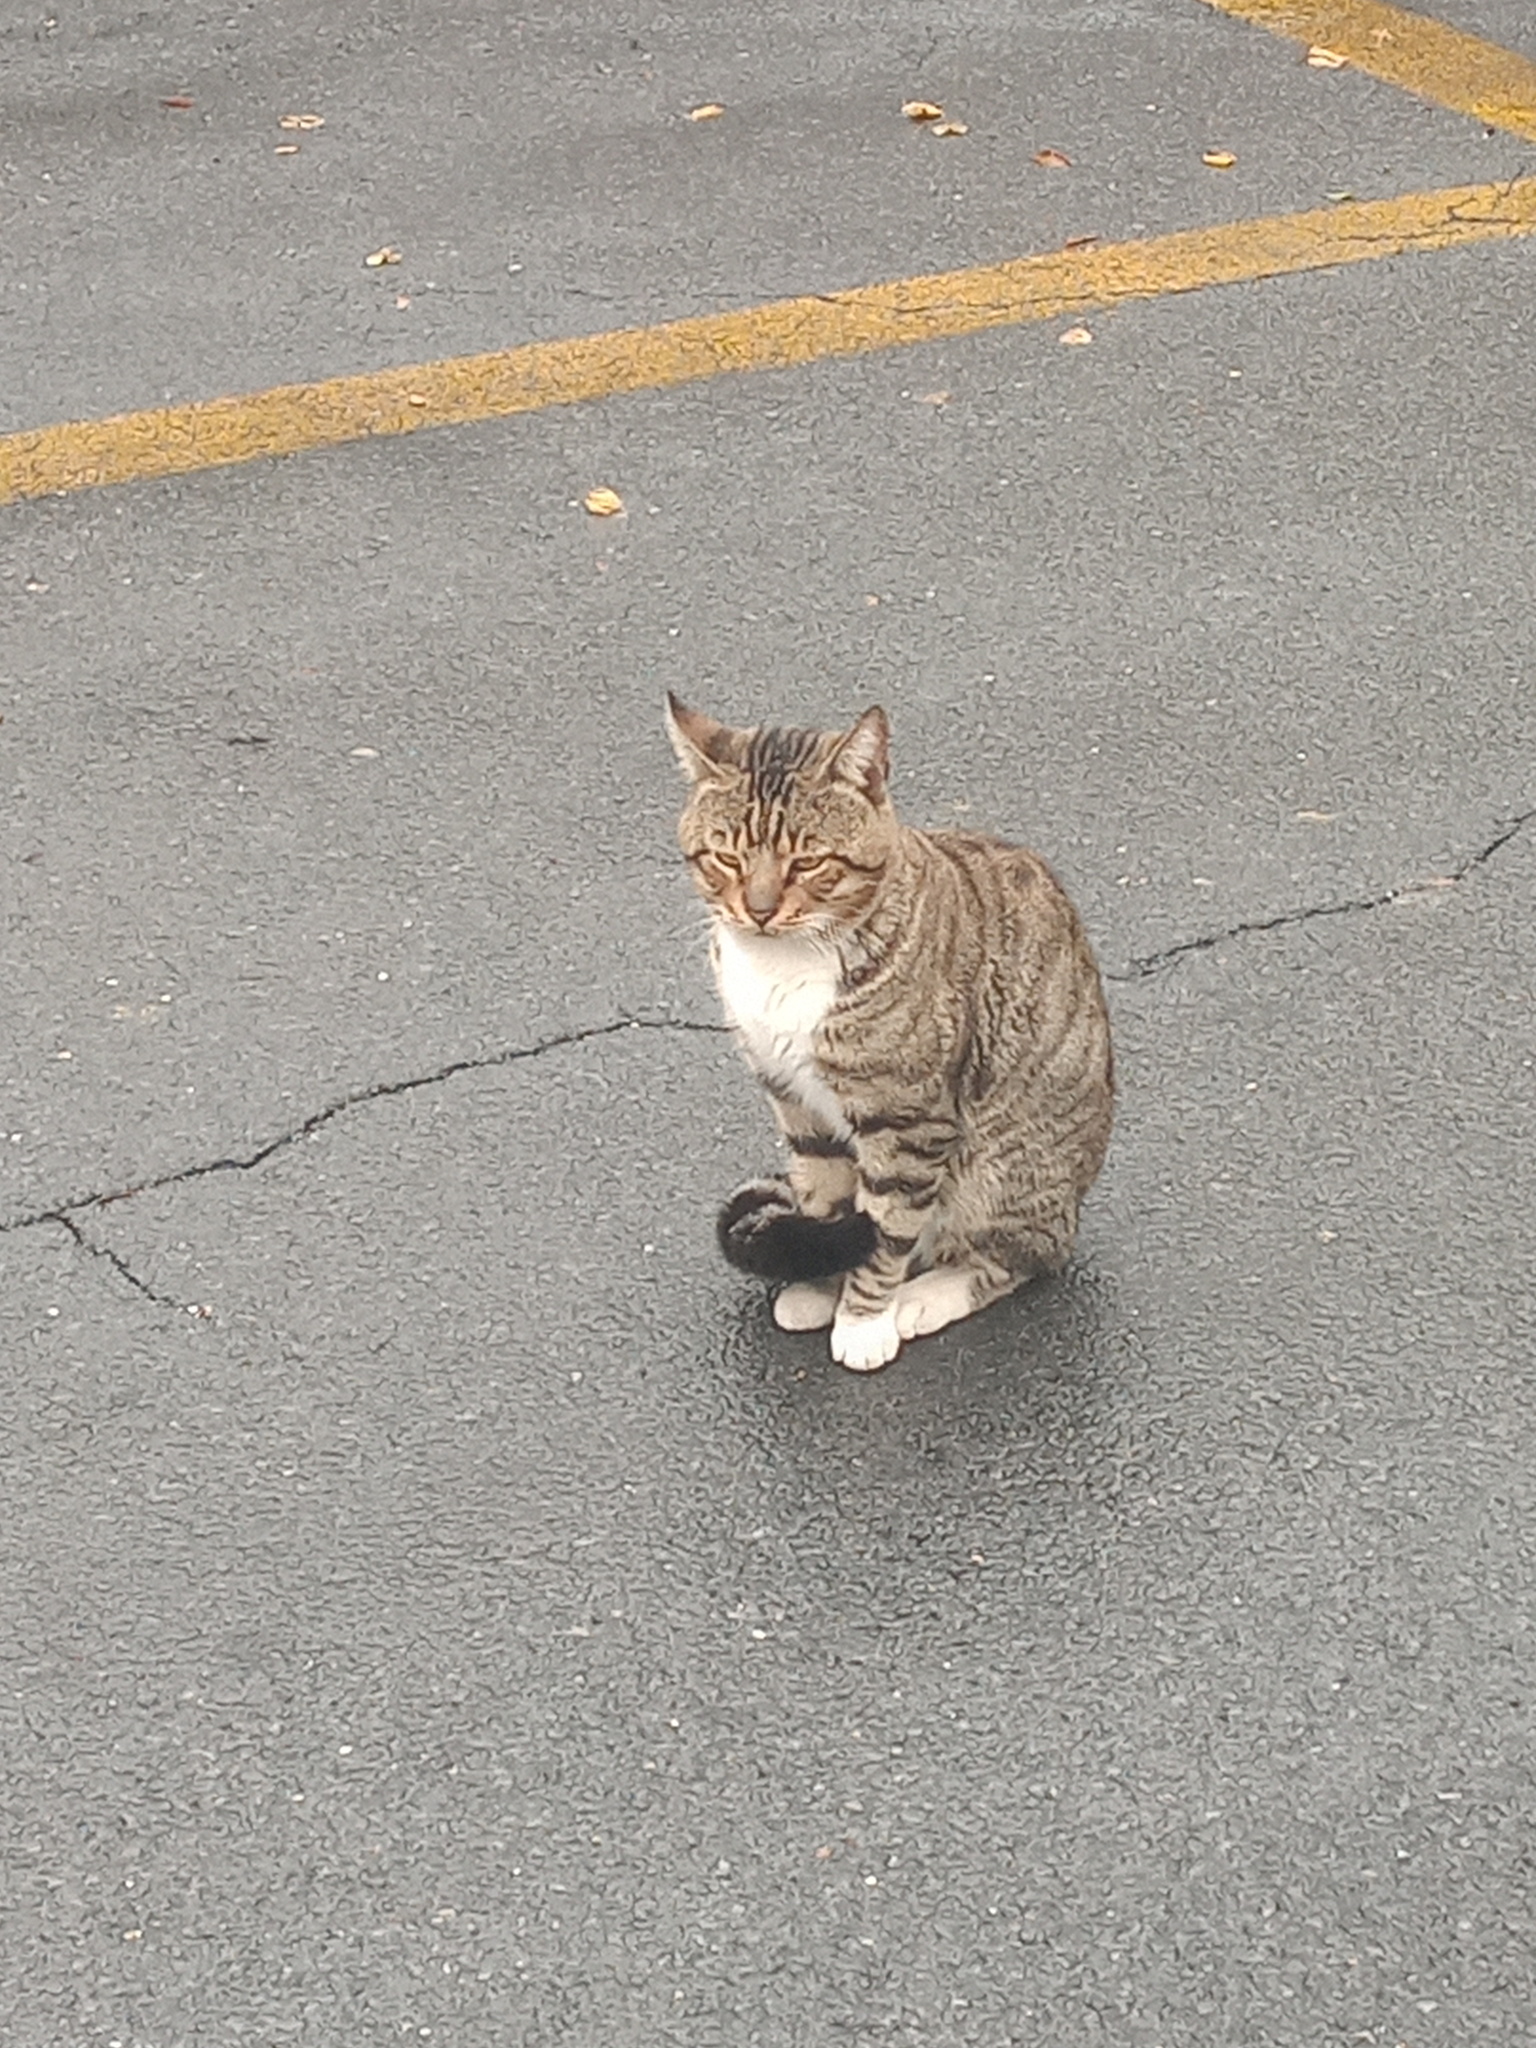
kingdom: Animalia
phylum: Chordata
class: Mammalia
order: Carnivora
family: Felidae
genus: Felis
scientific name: Felis catus
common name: Domestic cat
